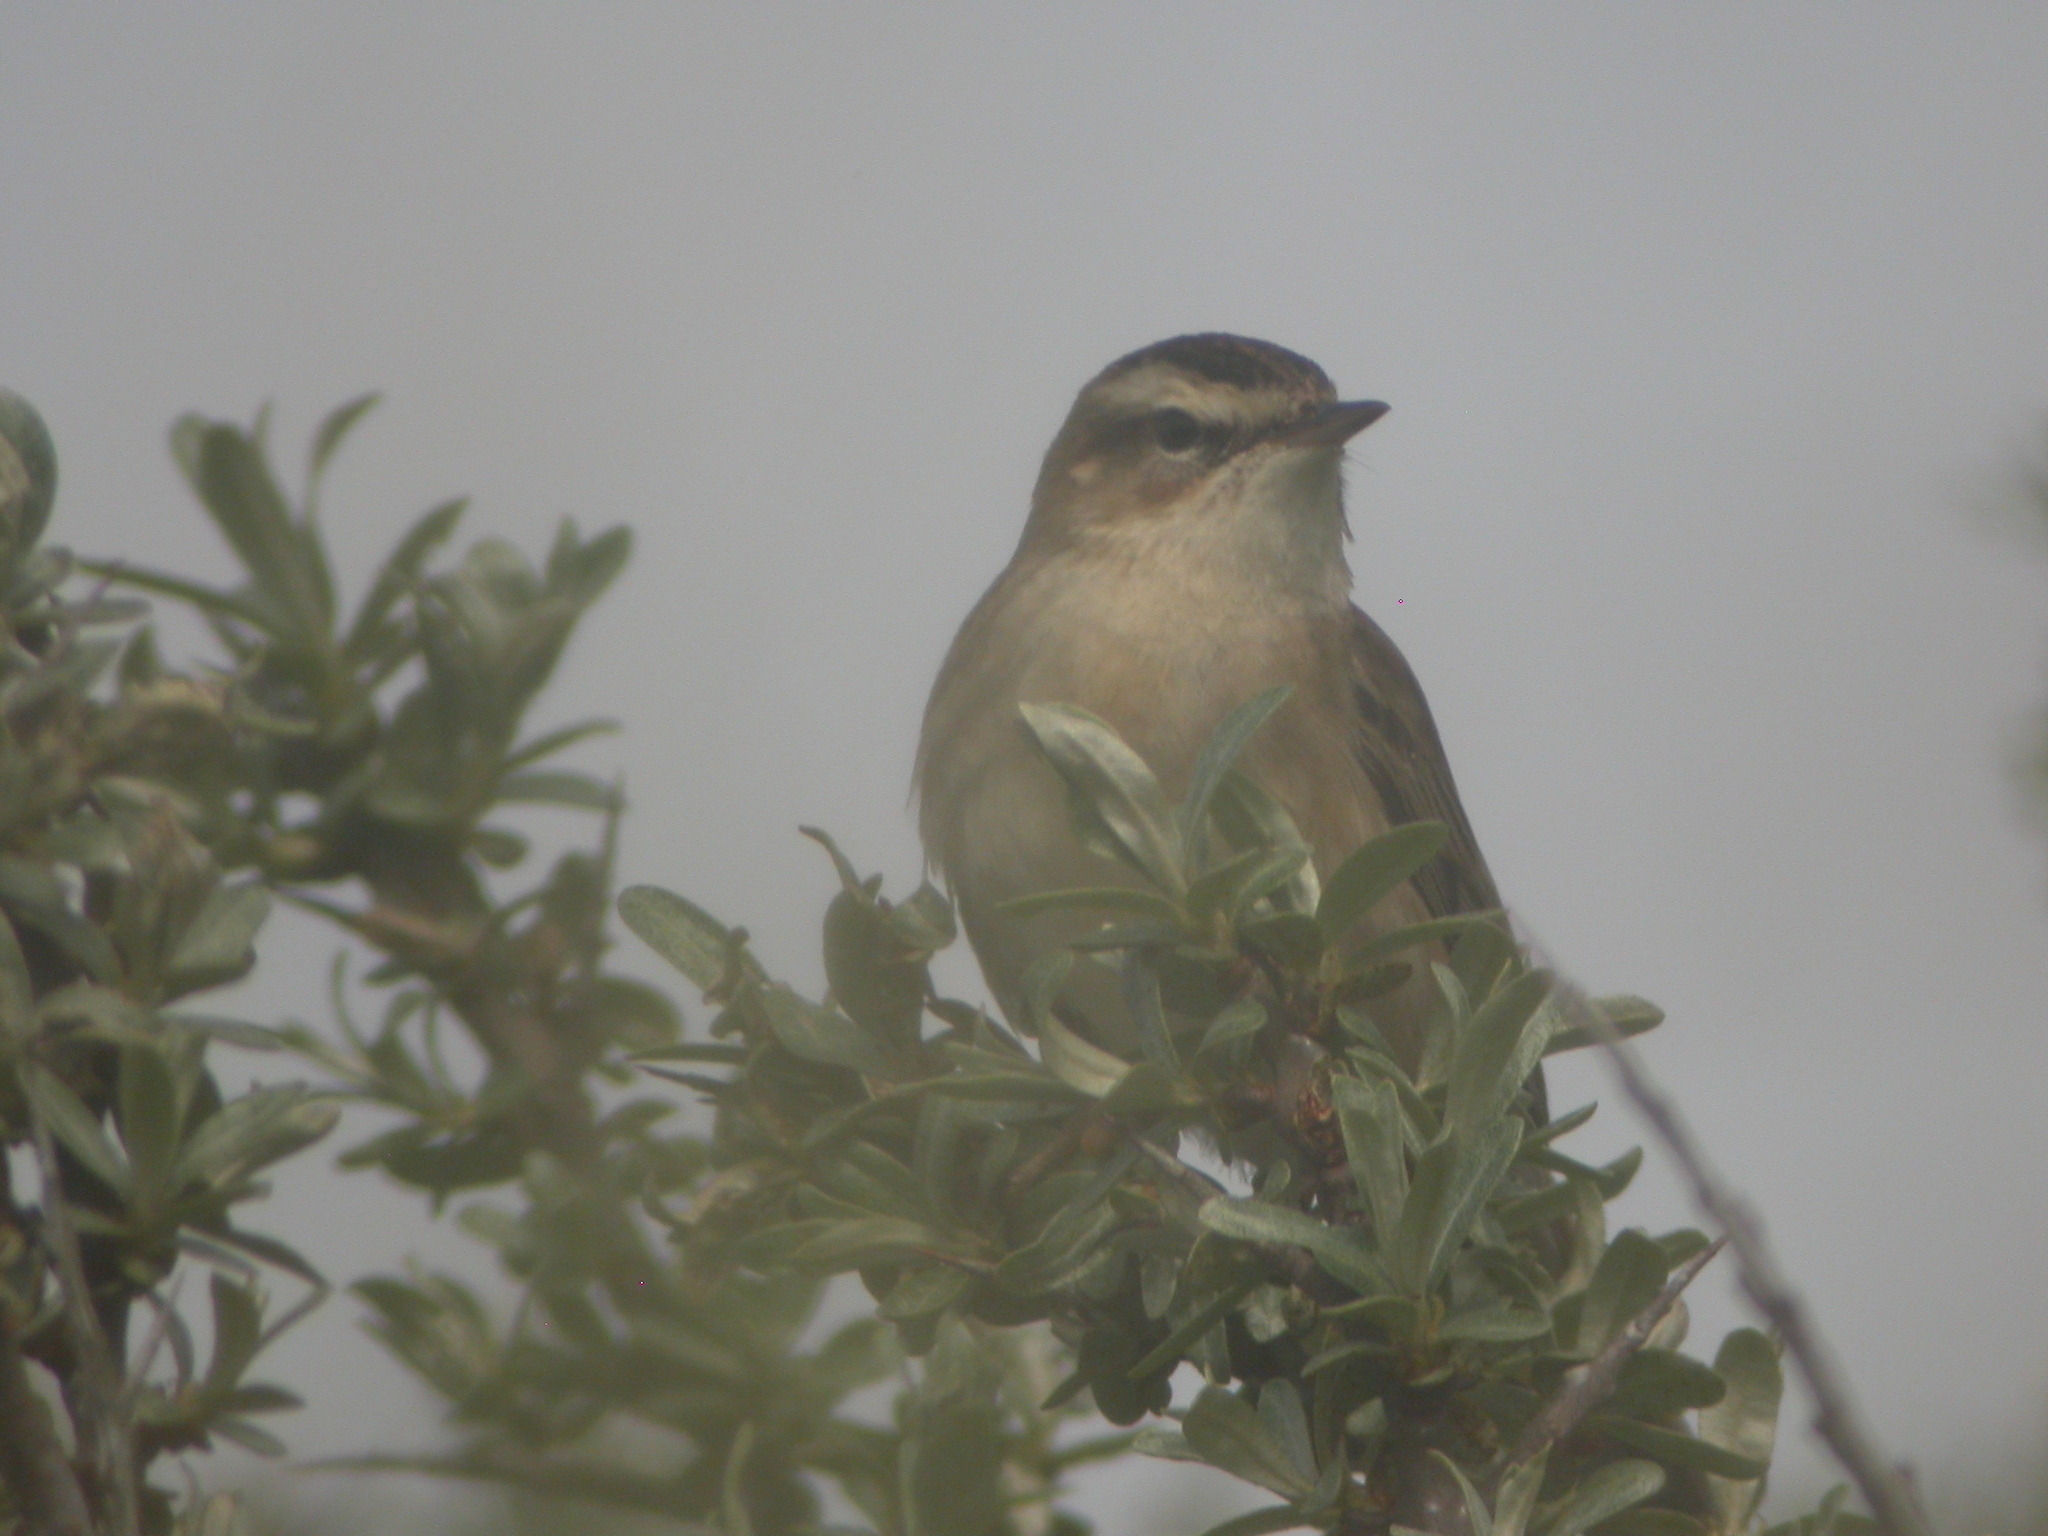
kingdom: Animalia
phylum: Chordata
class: Aves
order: Passeriformes
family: Acrocephalidae
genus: Acrocephalus
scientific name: Acrocephalus schoenobaenus
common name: Sedge warbler
